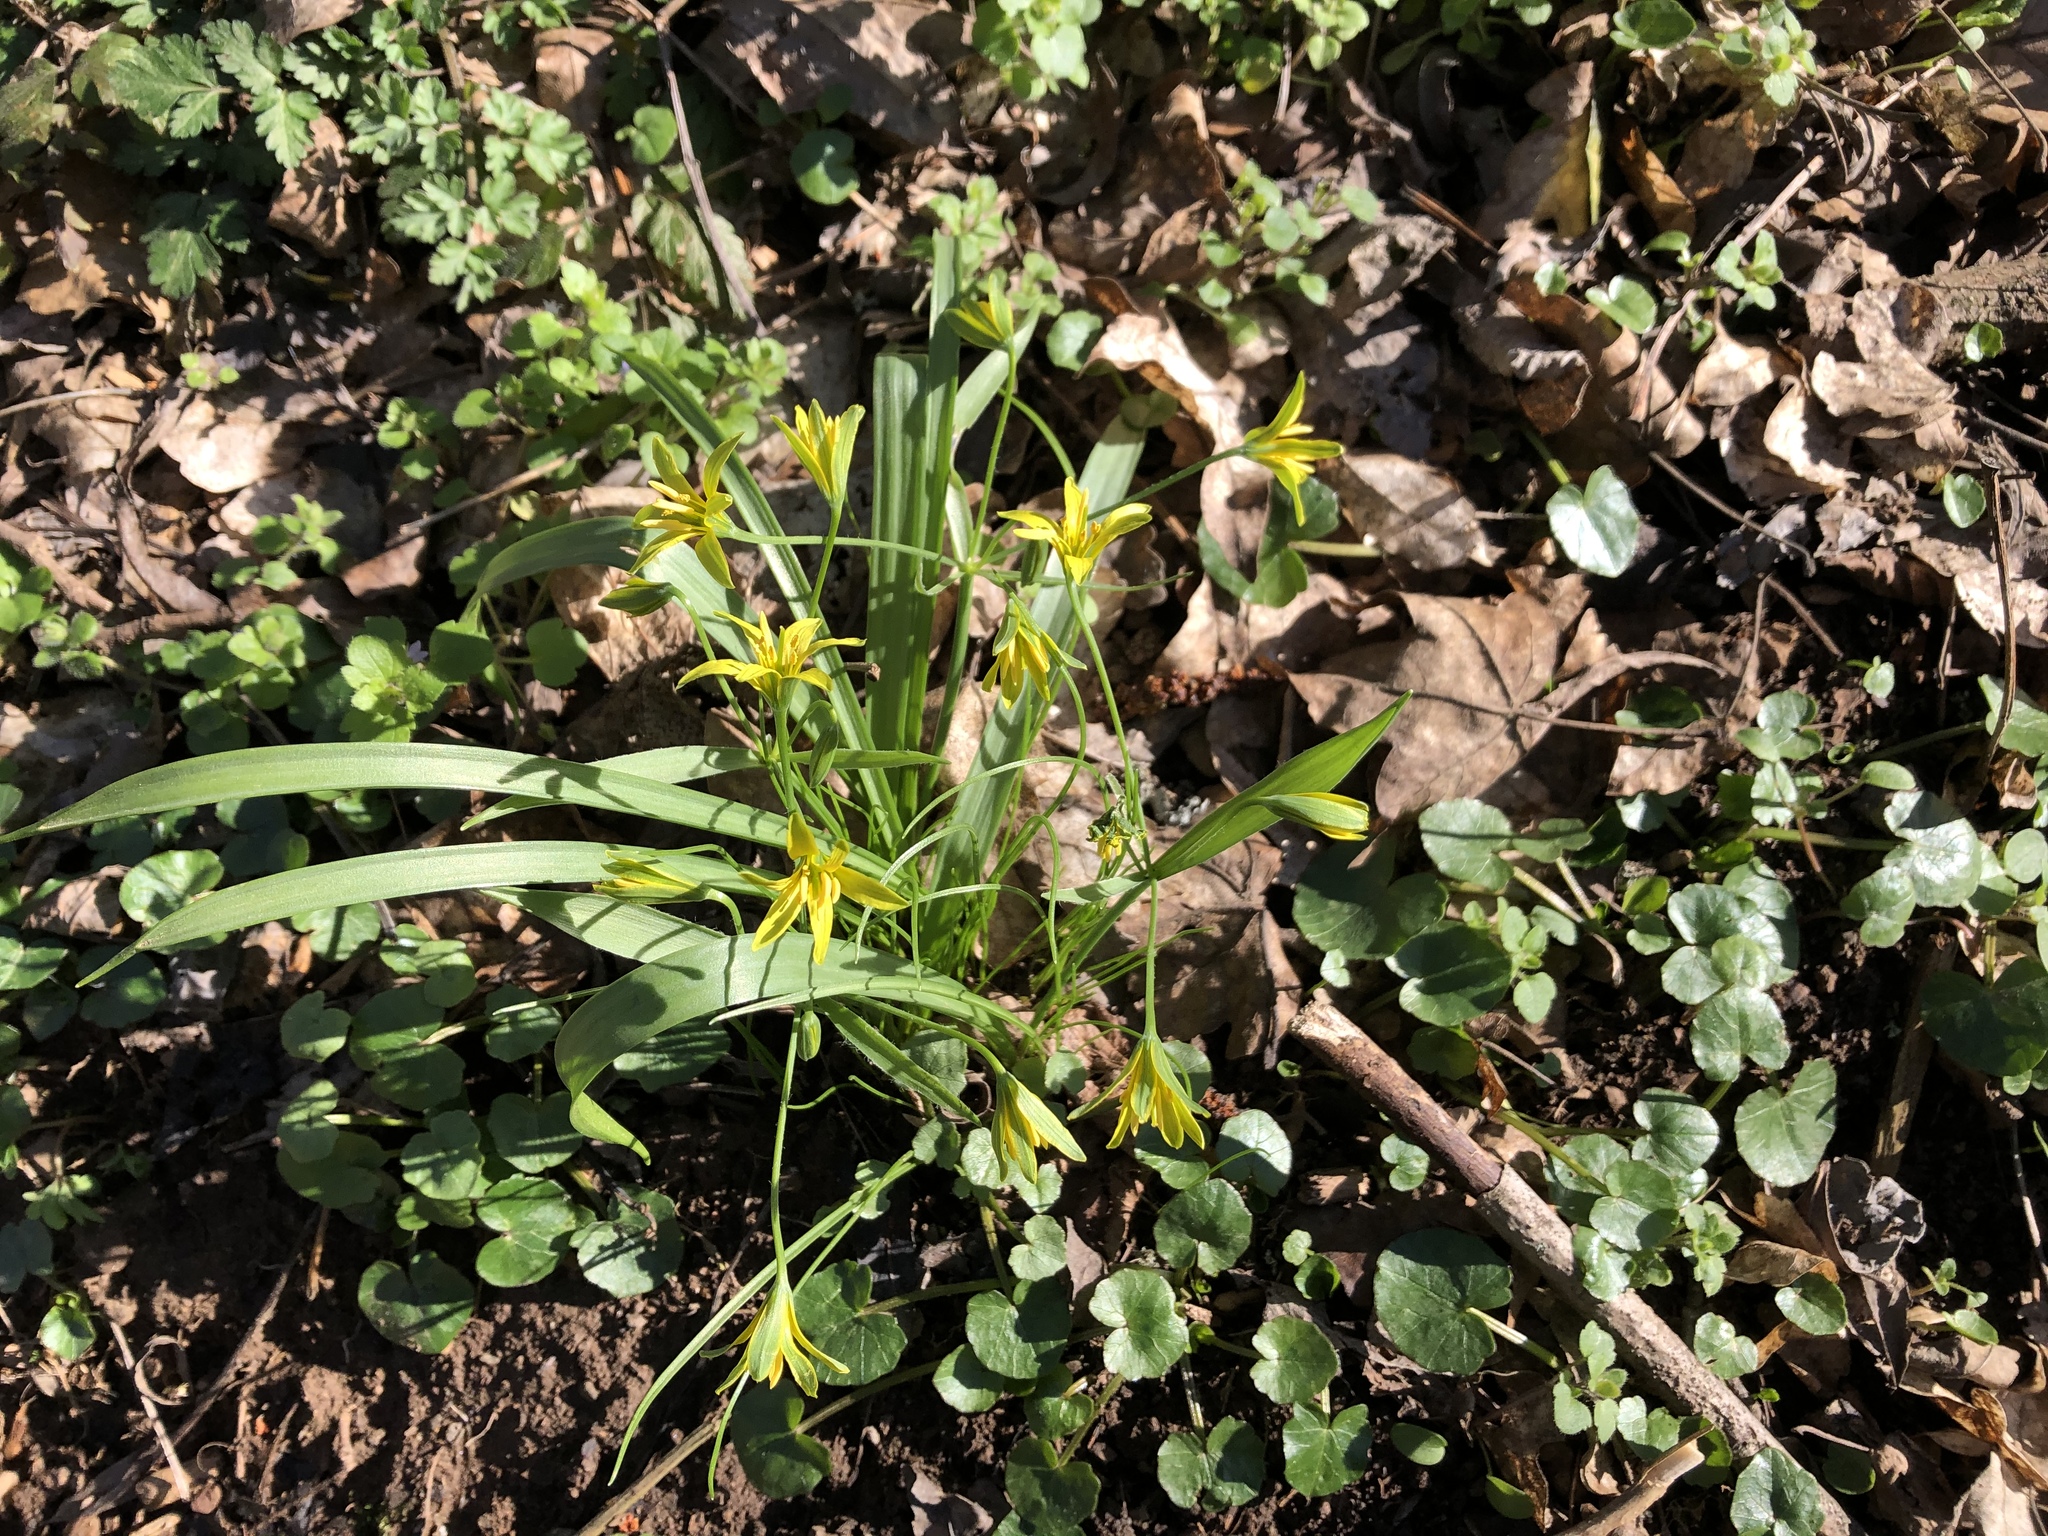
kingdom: Plantae
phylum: Tracheophyta
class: Liliopsida
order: Liliales
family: Liliaceae
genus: Gagea
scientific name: Gagea lutea
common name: Yellow star-of-bethlehem
